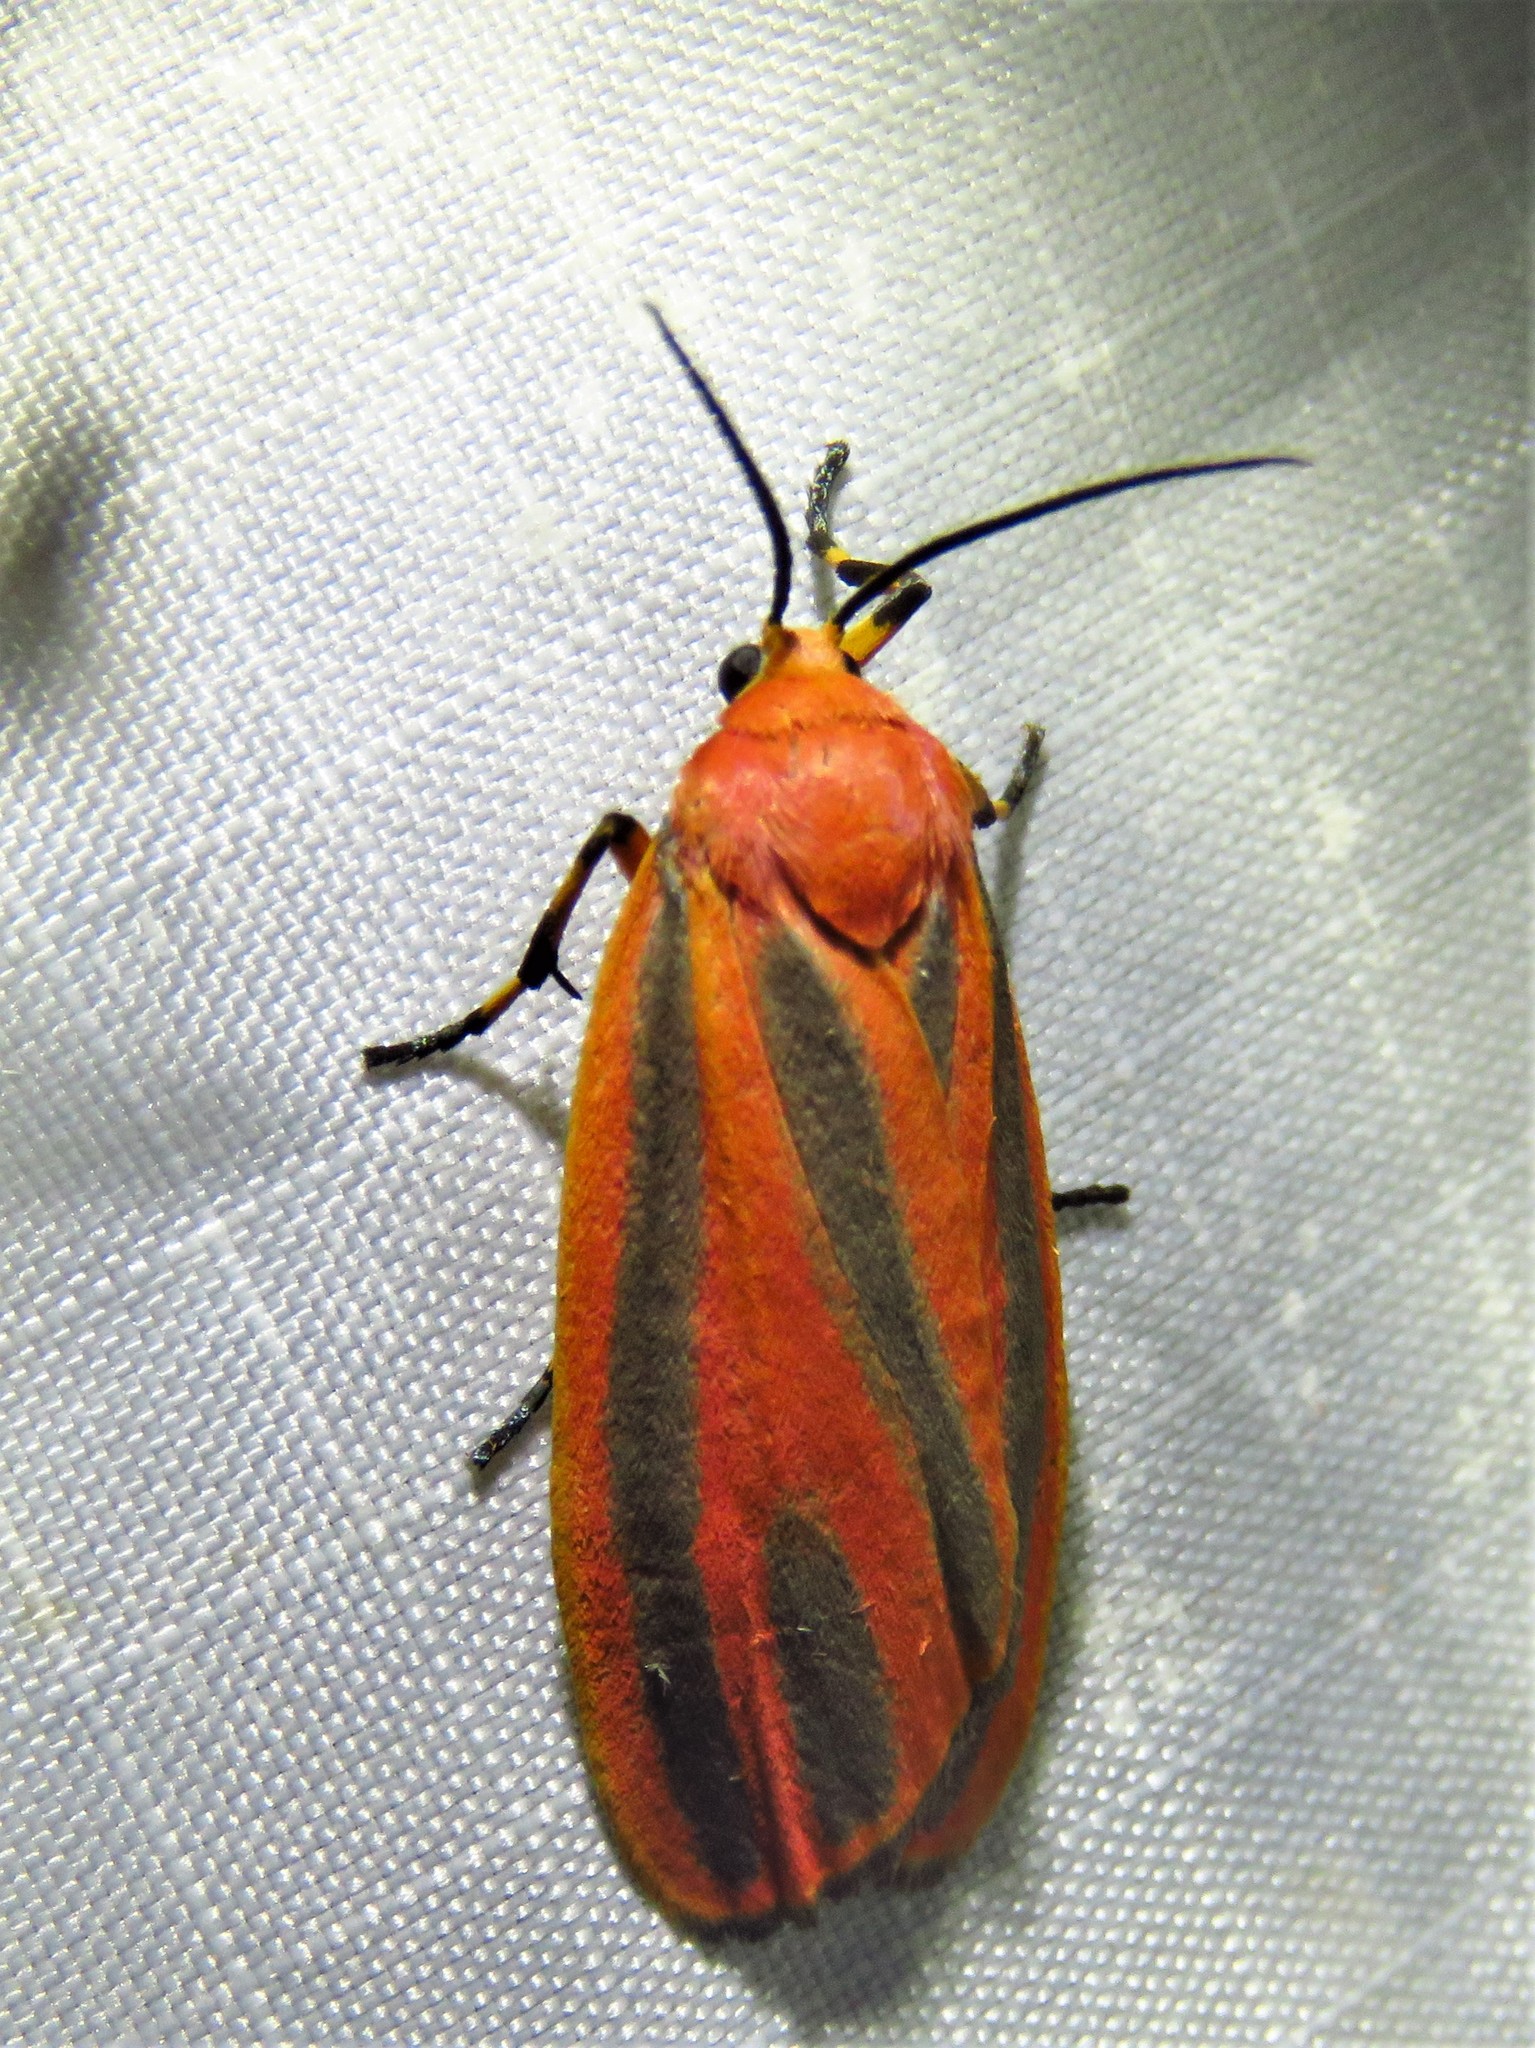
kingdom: Animalia
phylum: Arthropoda
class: Insecta
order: Lepidoptera
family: Erebidae
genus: Hypoprepia
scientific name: Hypoprepia miniata
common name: Scarlet-winged lichen moth
